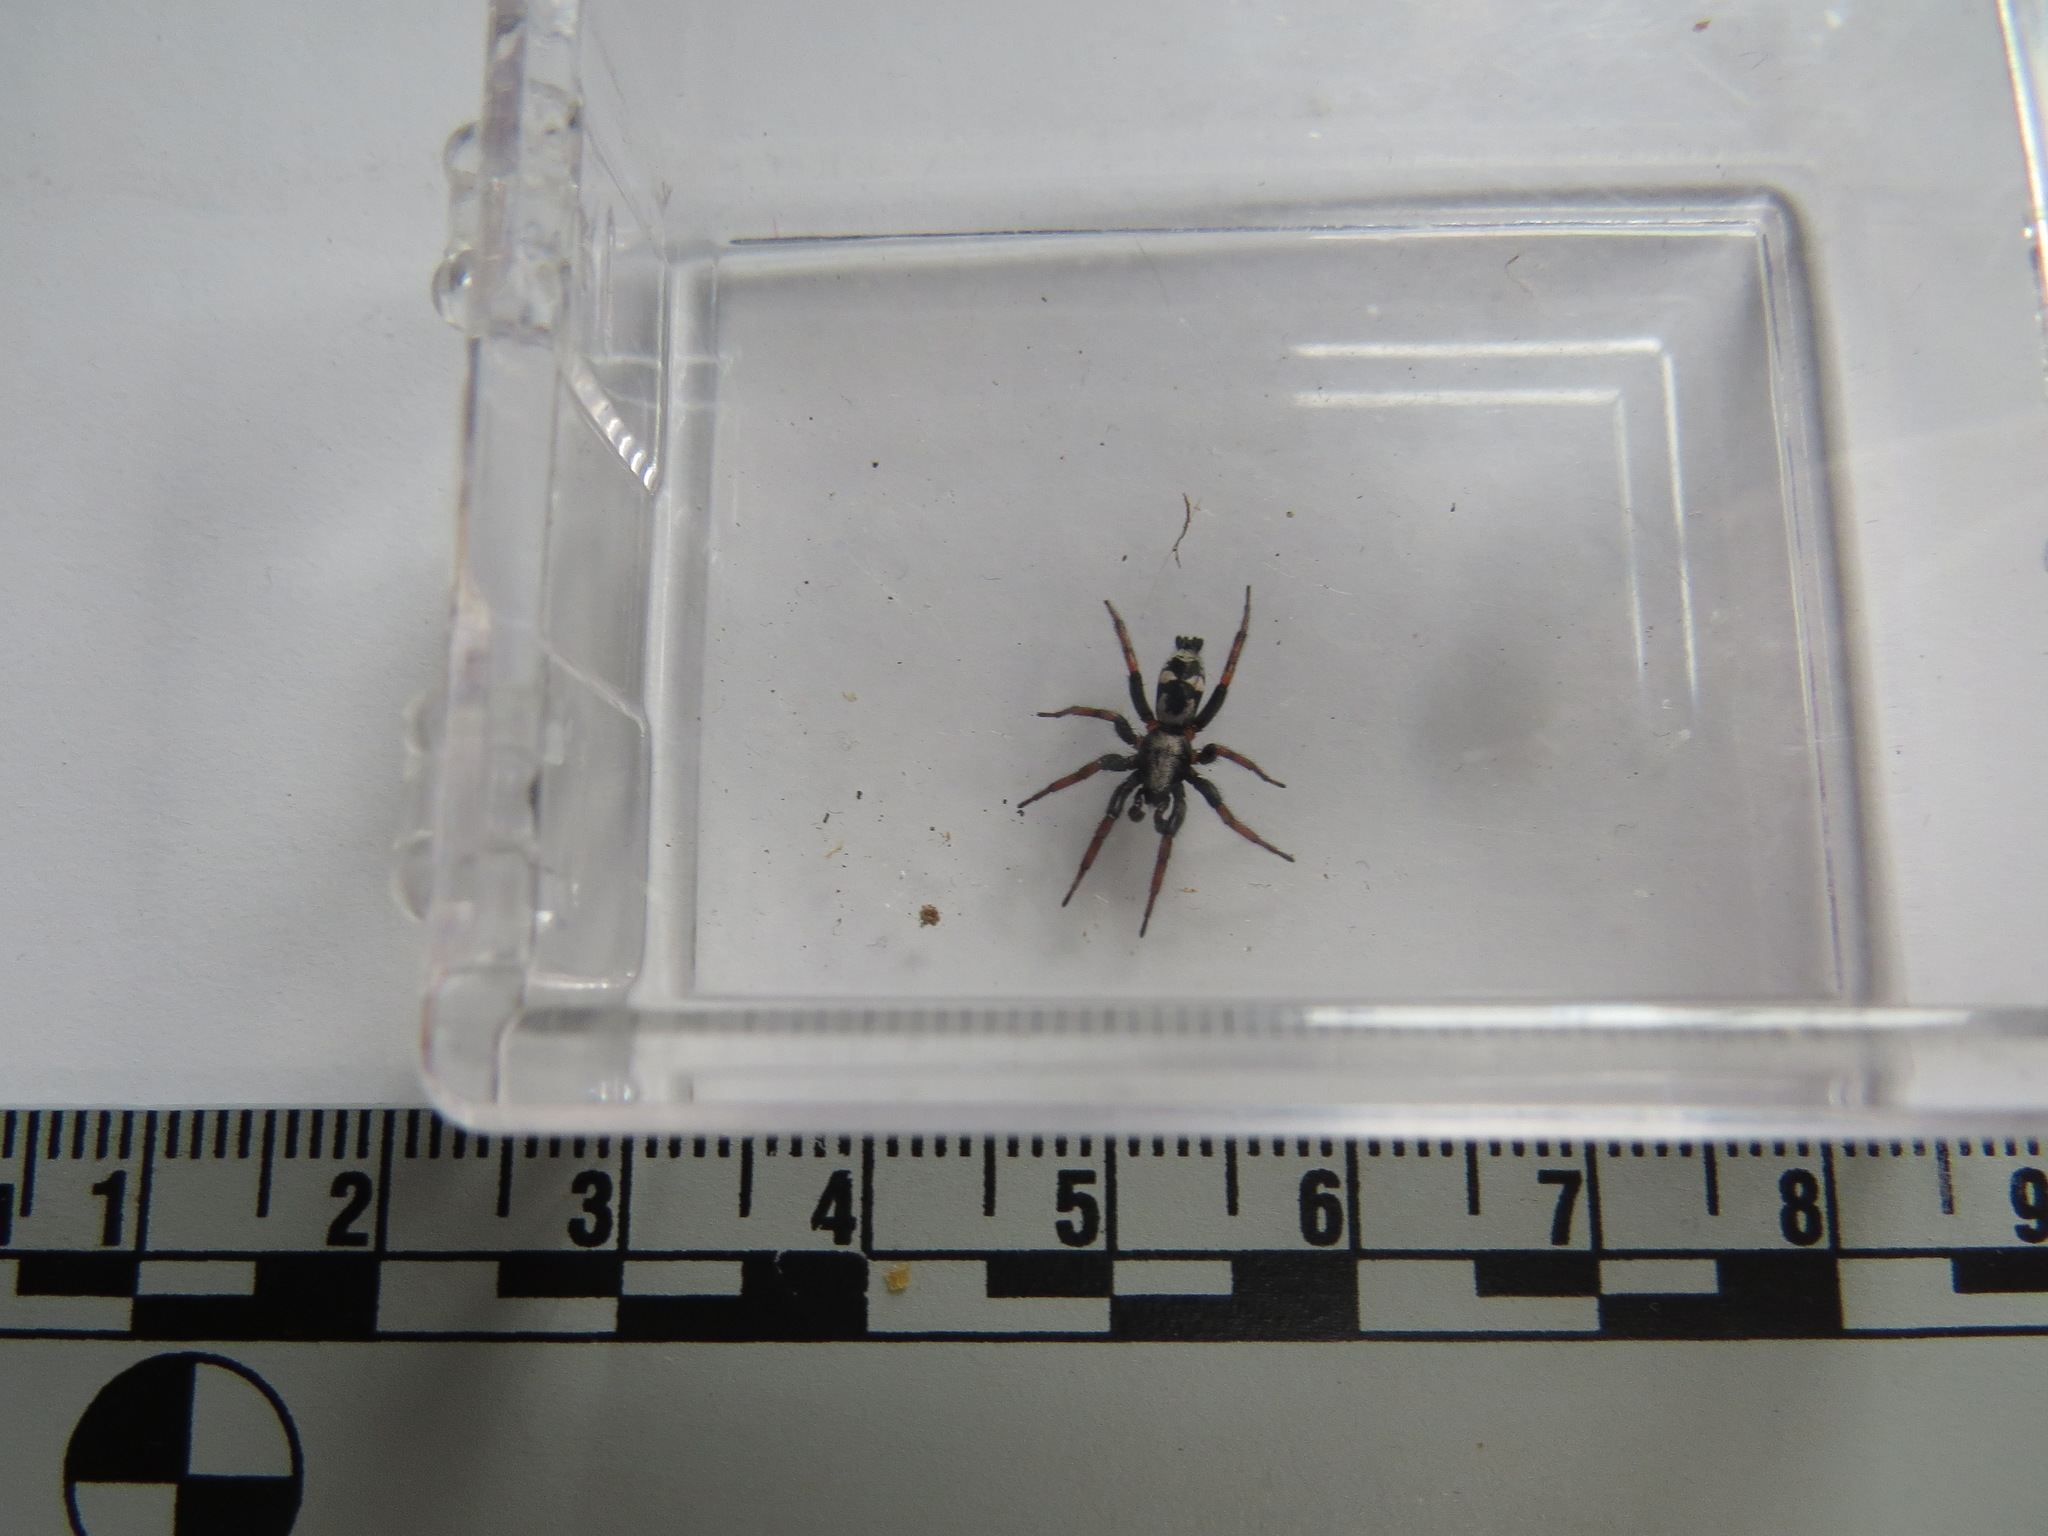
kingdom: Animalia
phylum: Arthropoda
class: Arachnida
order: Araneae
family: Gnaphosidae
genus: Sergiolus
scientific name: Sergiolus
